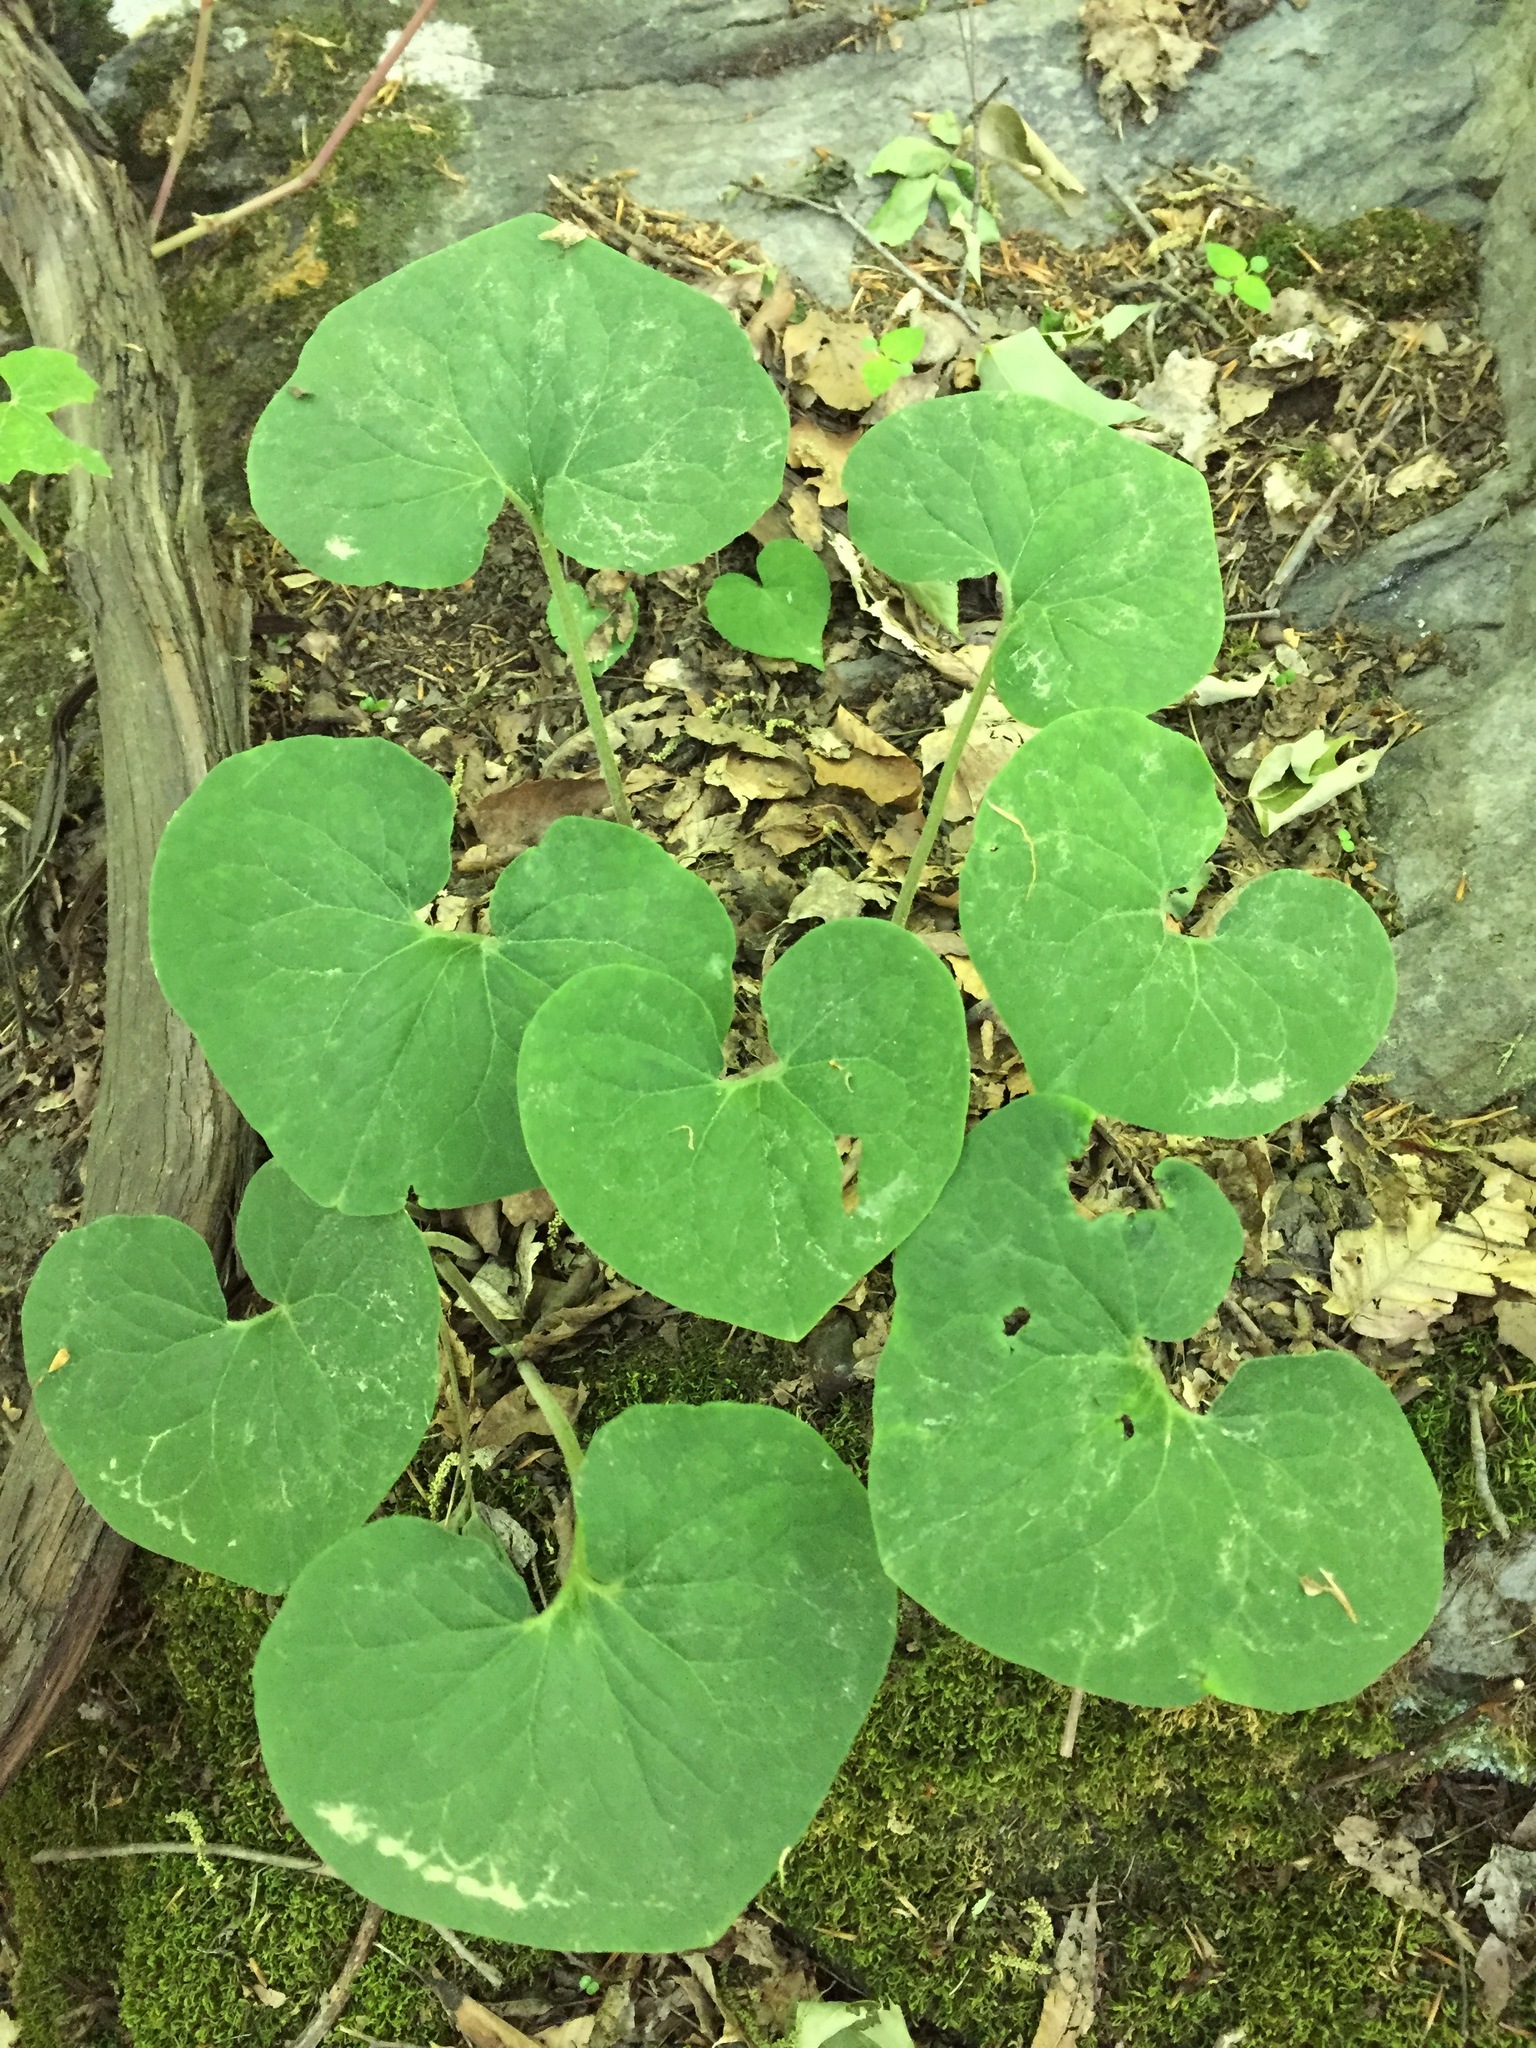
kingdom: Plantae
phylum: Tracheophyta
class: Magnoliopsida
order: Piperales
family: Aristolochiaceae
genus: Asarum
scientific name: Asarum canadense
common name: Wild ginger
